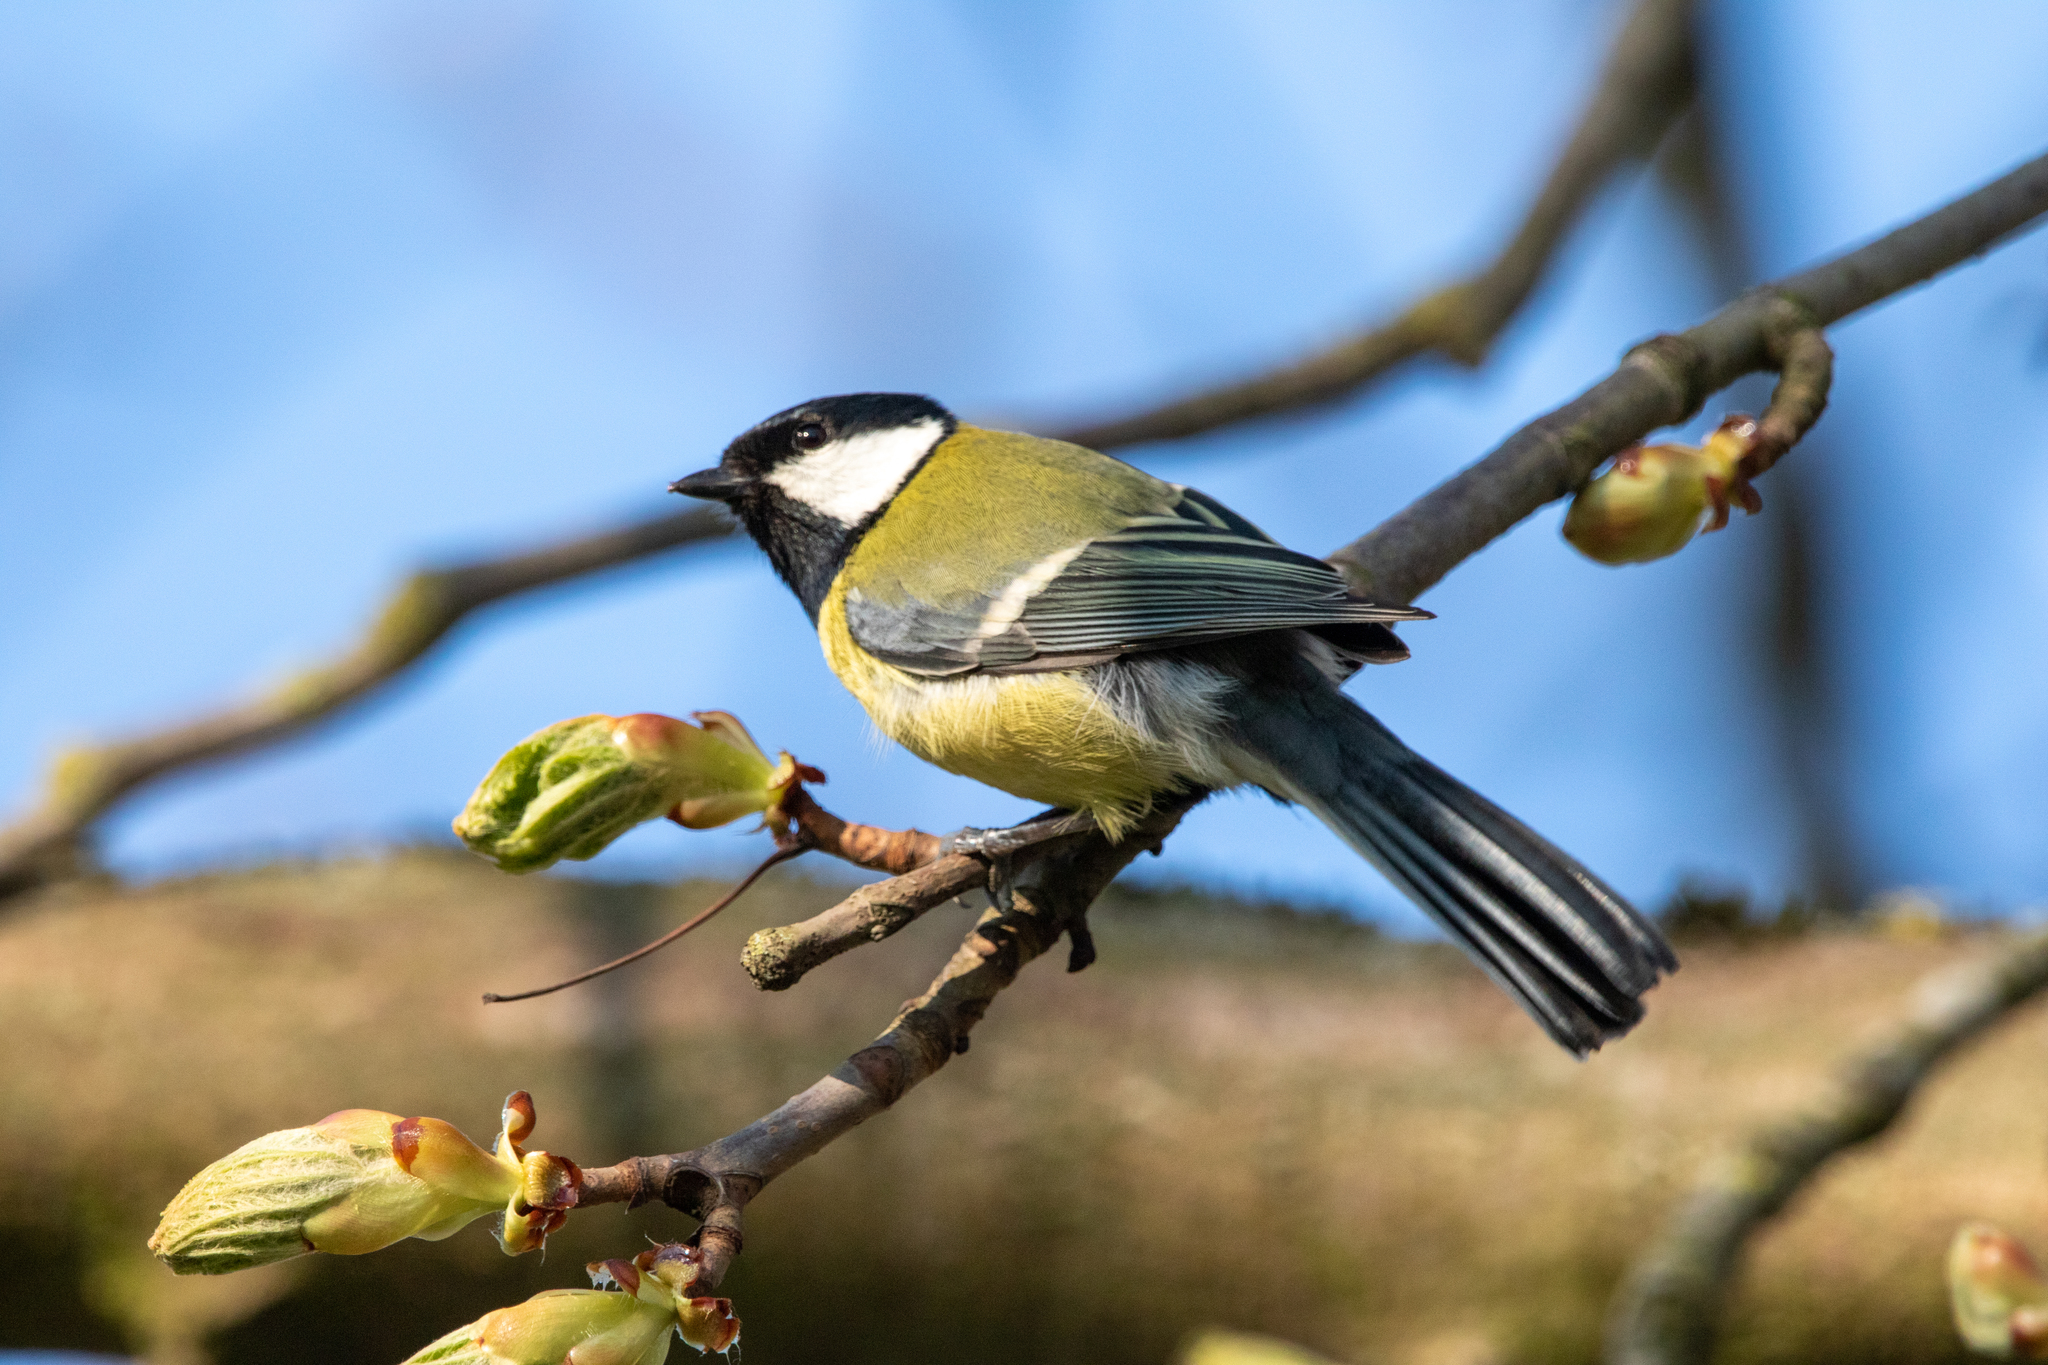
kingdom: Animalia
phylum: Chordata
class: Aves
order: Passeriformes
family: Paridae
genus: Parus
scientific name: Parus major
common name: Great tit
